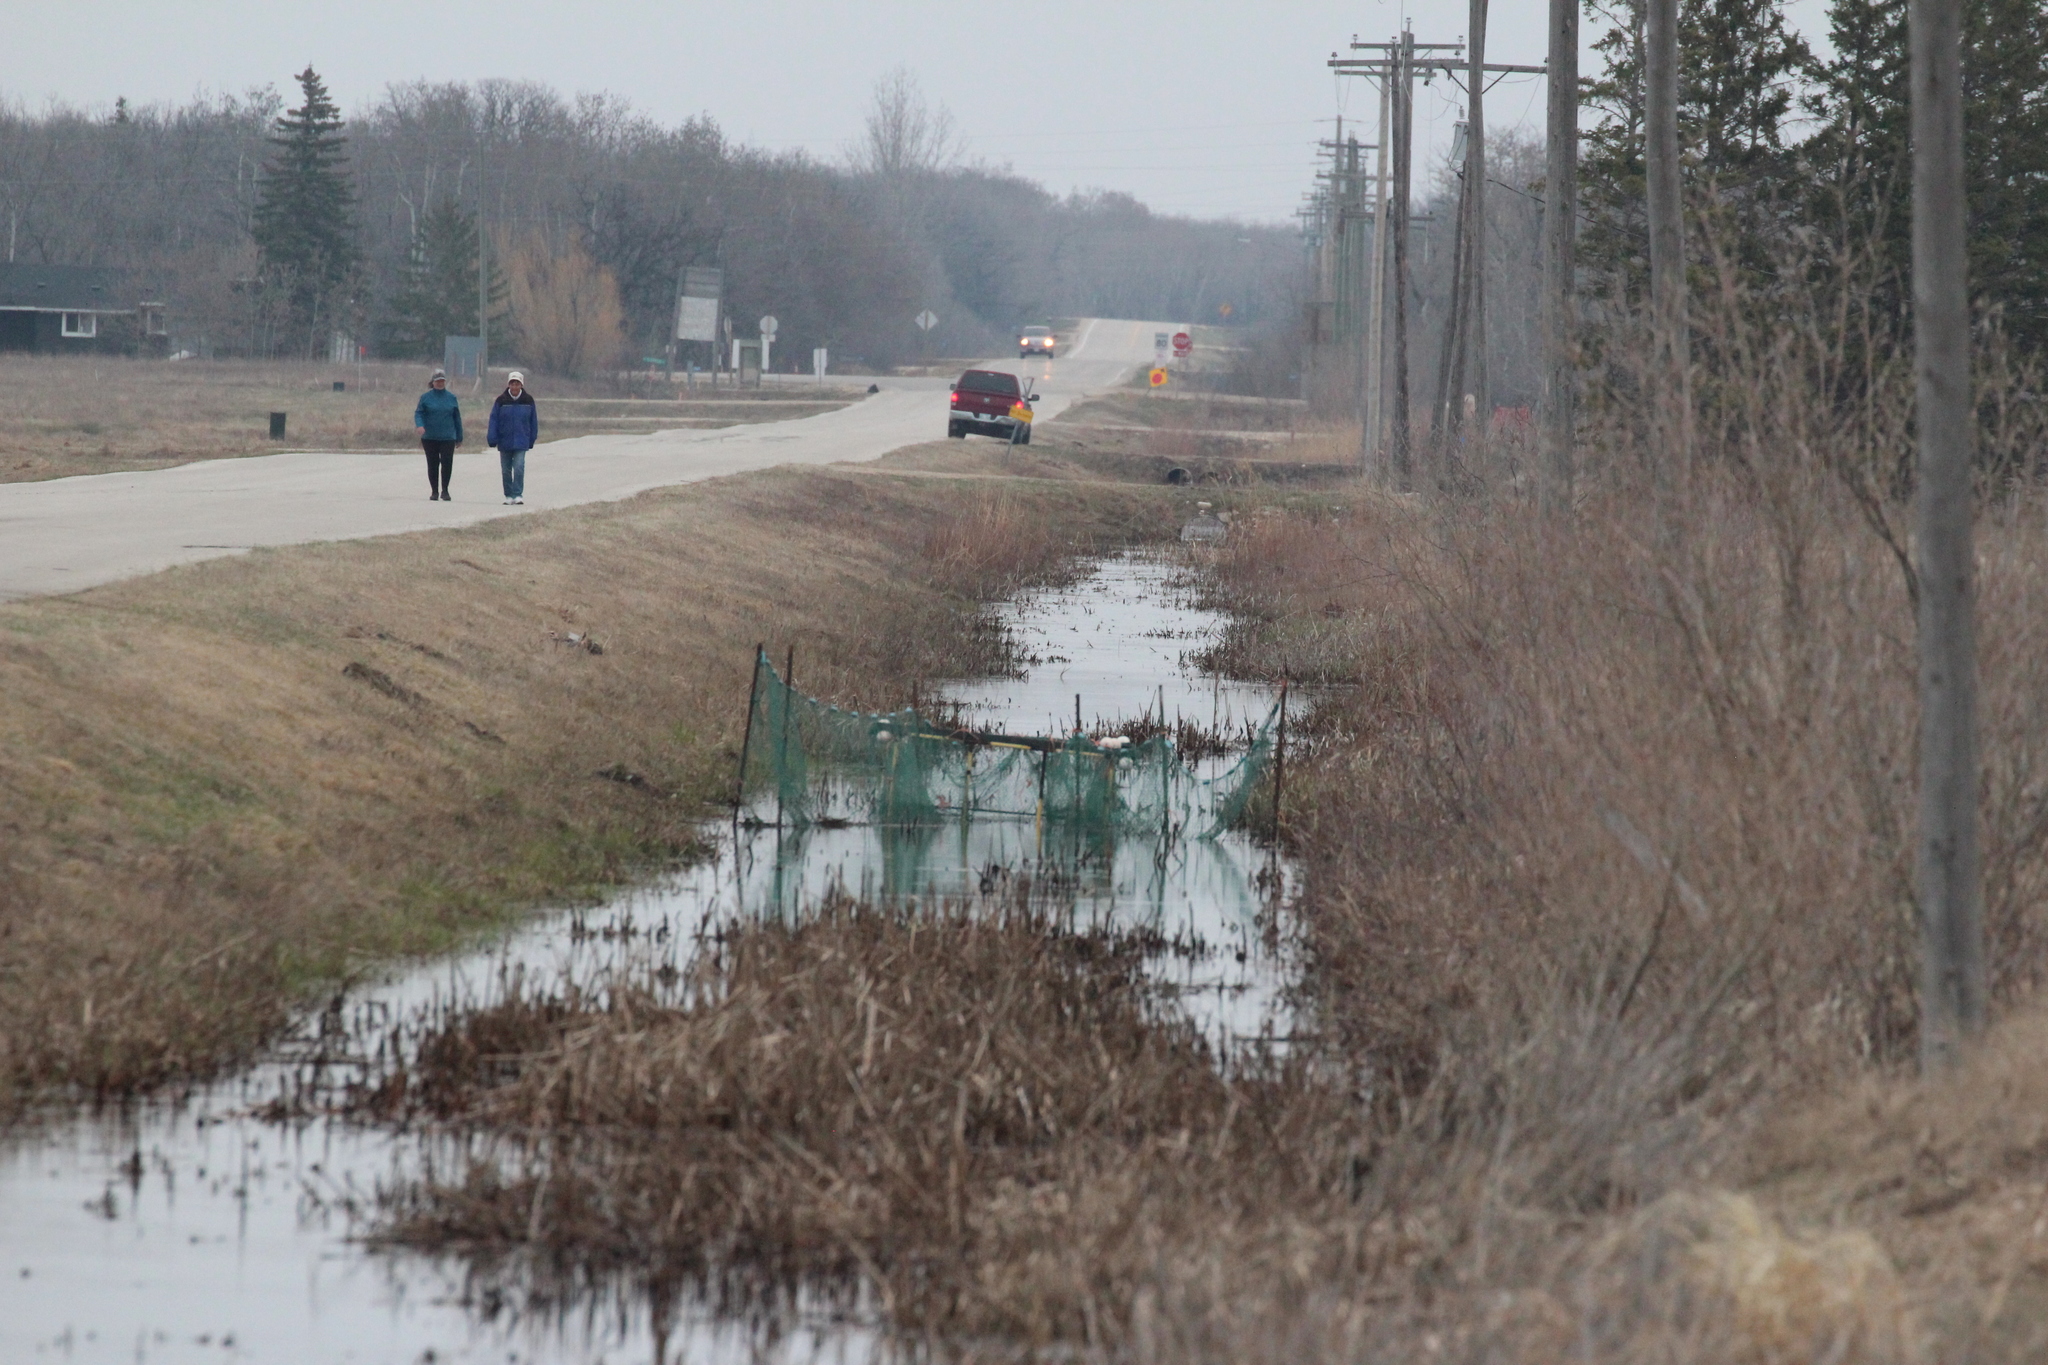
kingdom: Animalia
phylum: Chordata
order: Cypriniformes
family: Catostomidae
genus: Catostomus
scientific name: Catostomus commersonii
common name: White sucker
